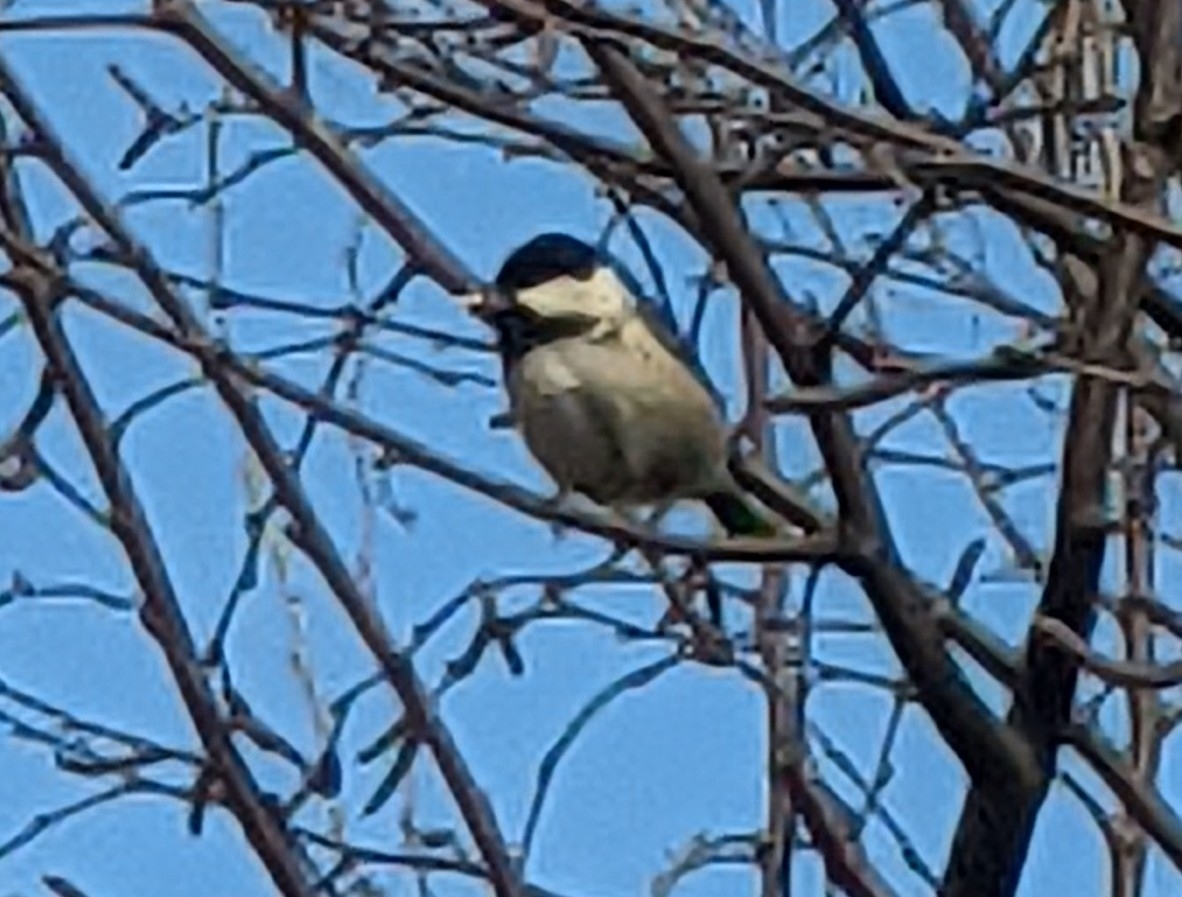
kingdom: Animalia
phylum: Chordata
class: Aves
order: Passeriformes
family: Paridae
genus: Periparus
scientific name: Periparus ater
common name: Coal tit
